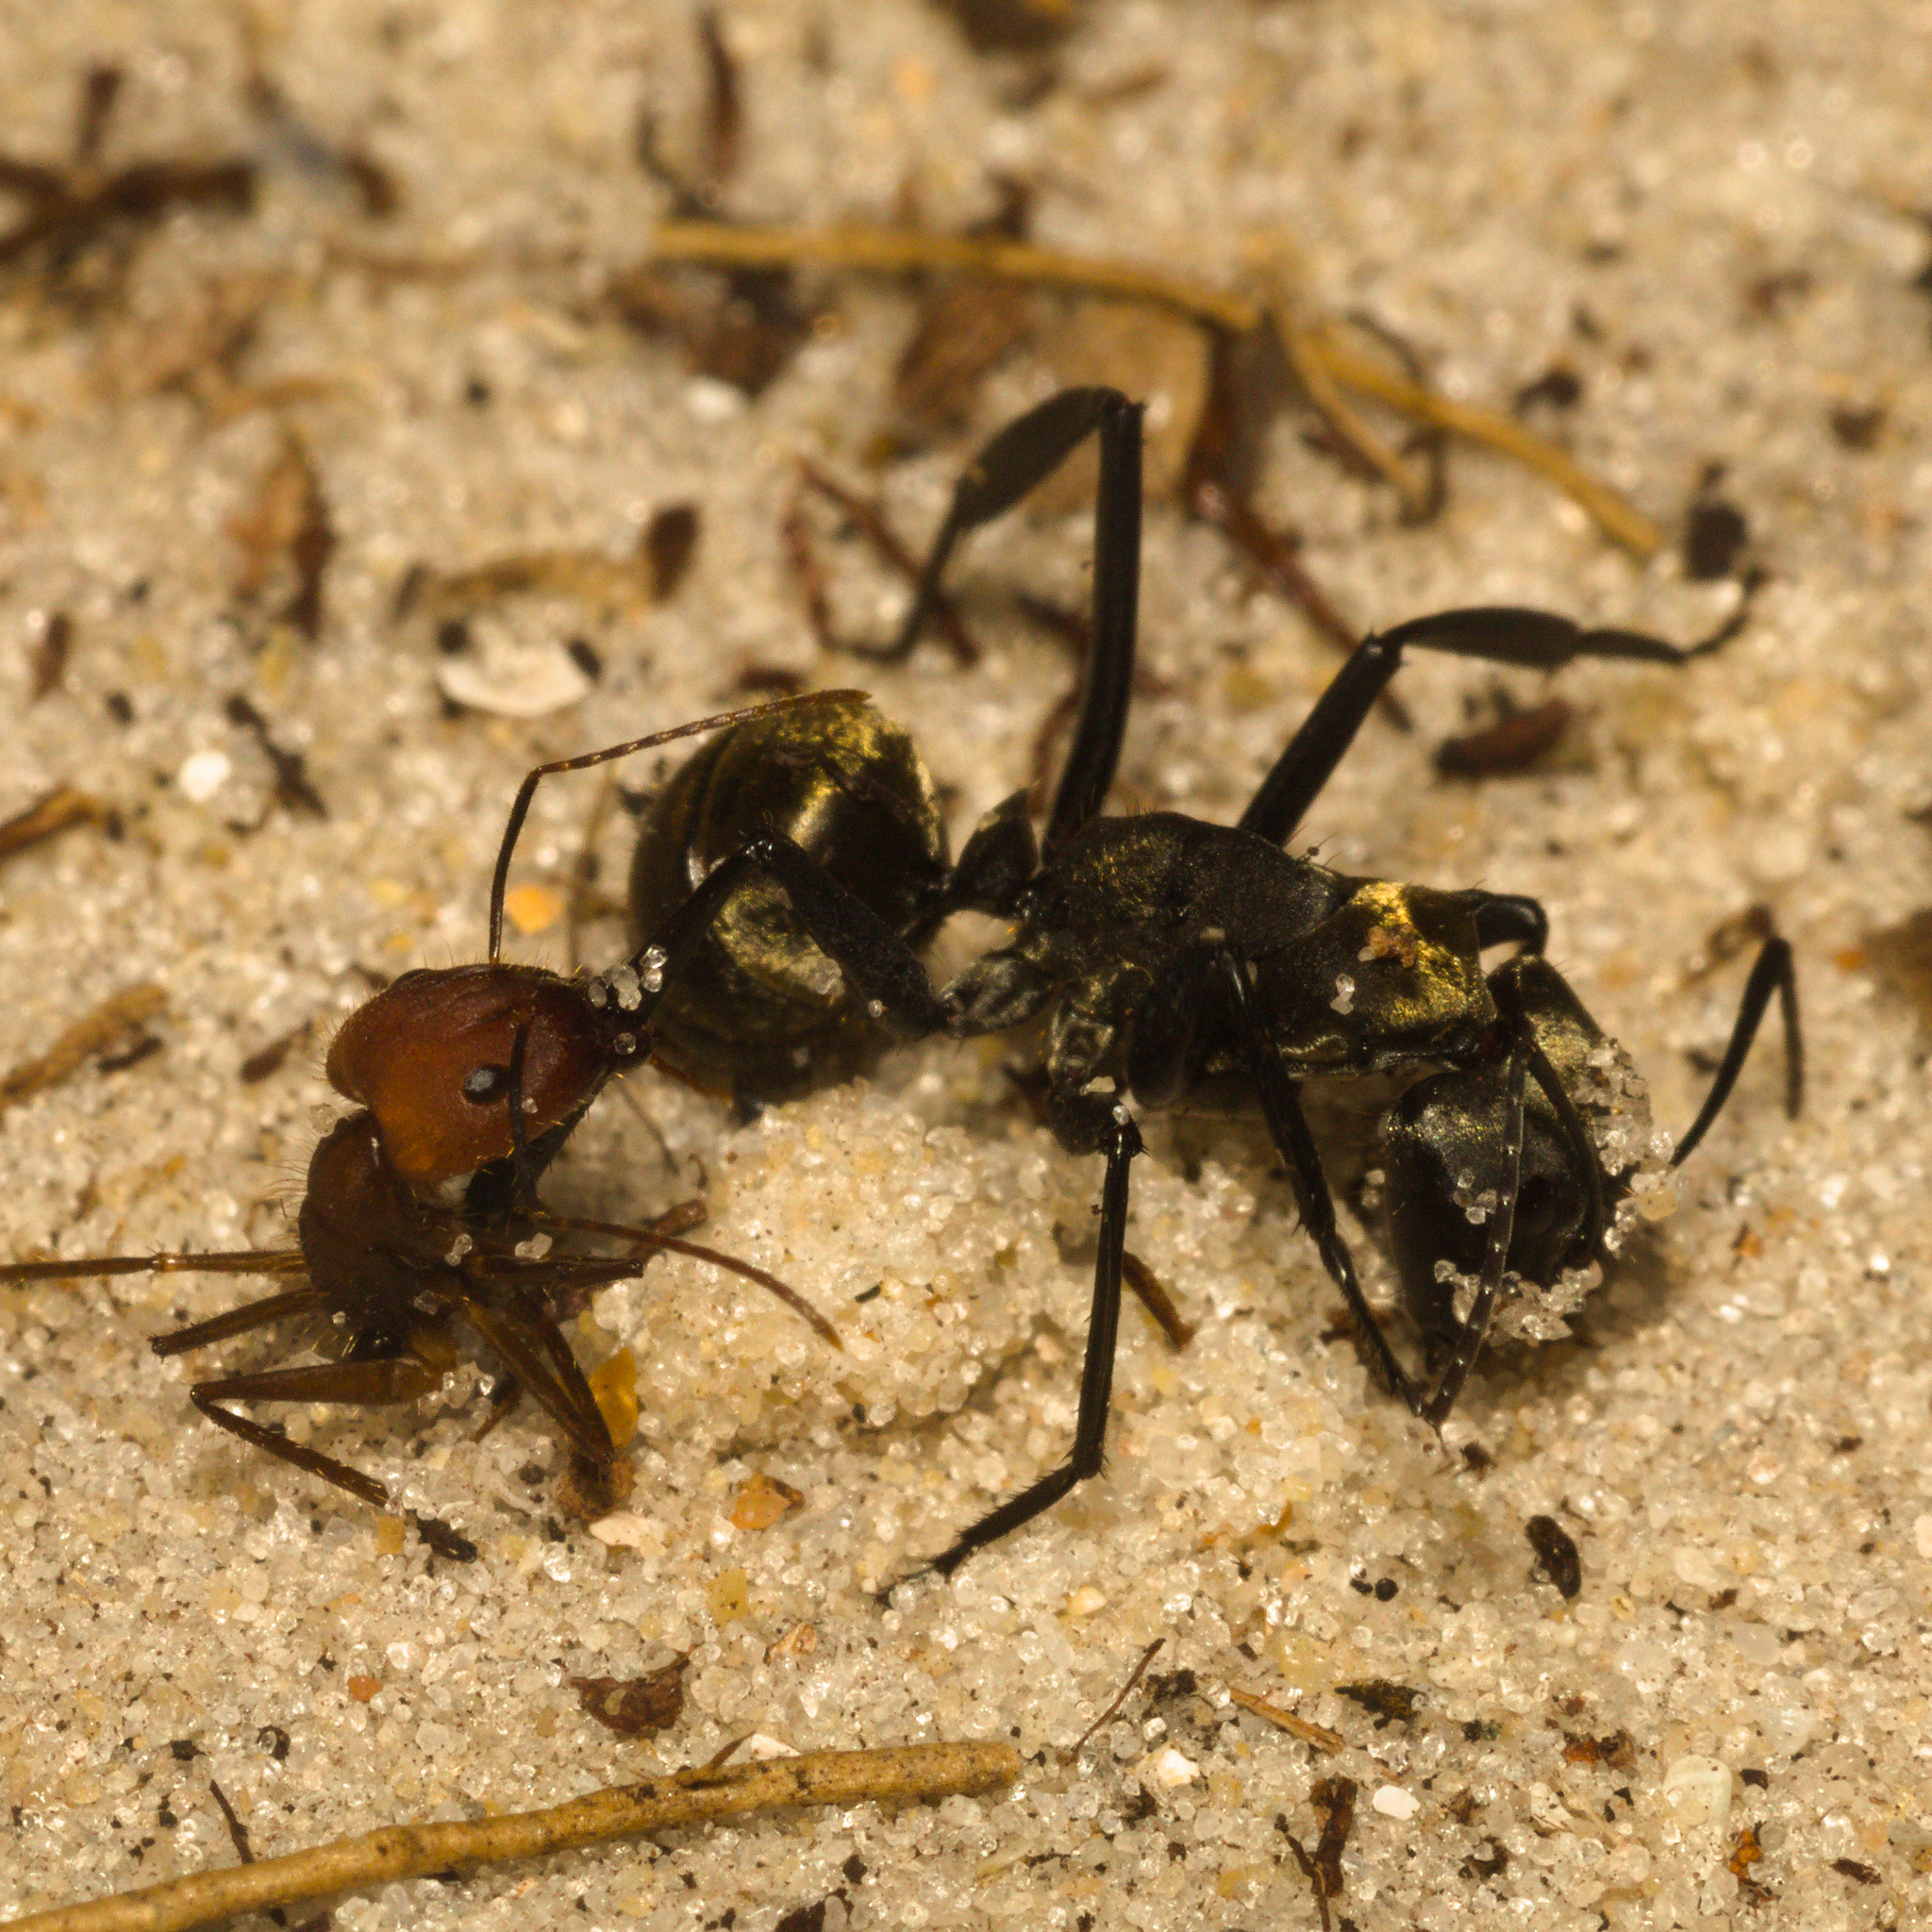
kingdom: Animalia
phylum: Arthropoda
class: Insecta
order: Hymenoptera
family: Formicidae
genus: Camponotus
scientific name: Camponotus cingulatus
